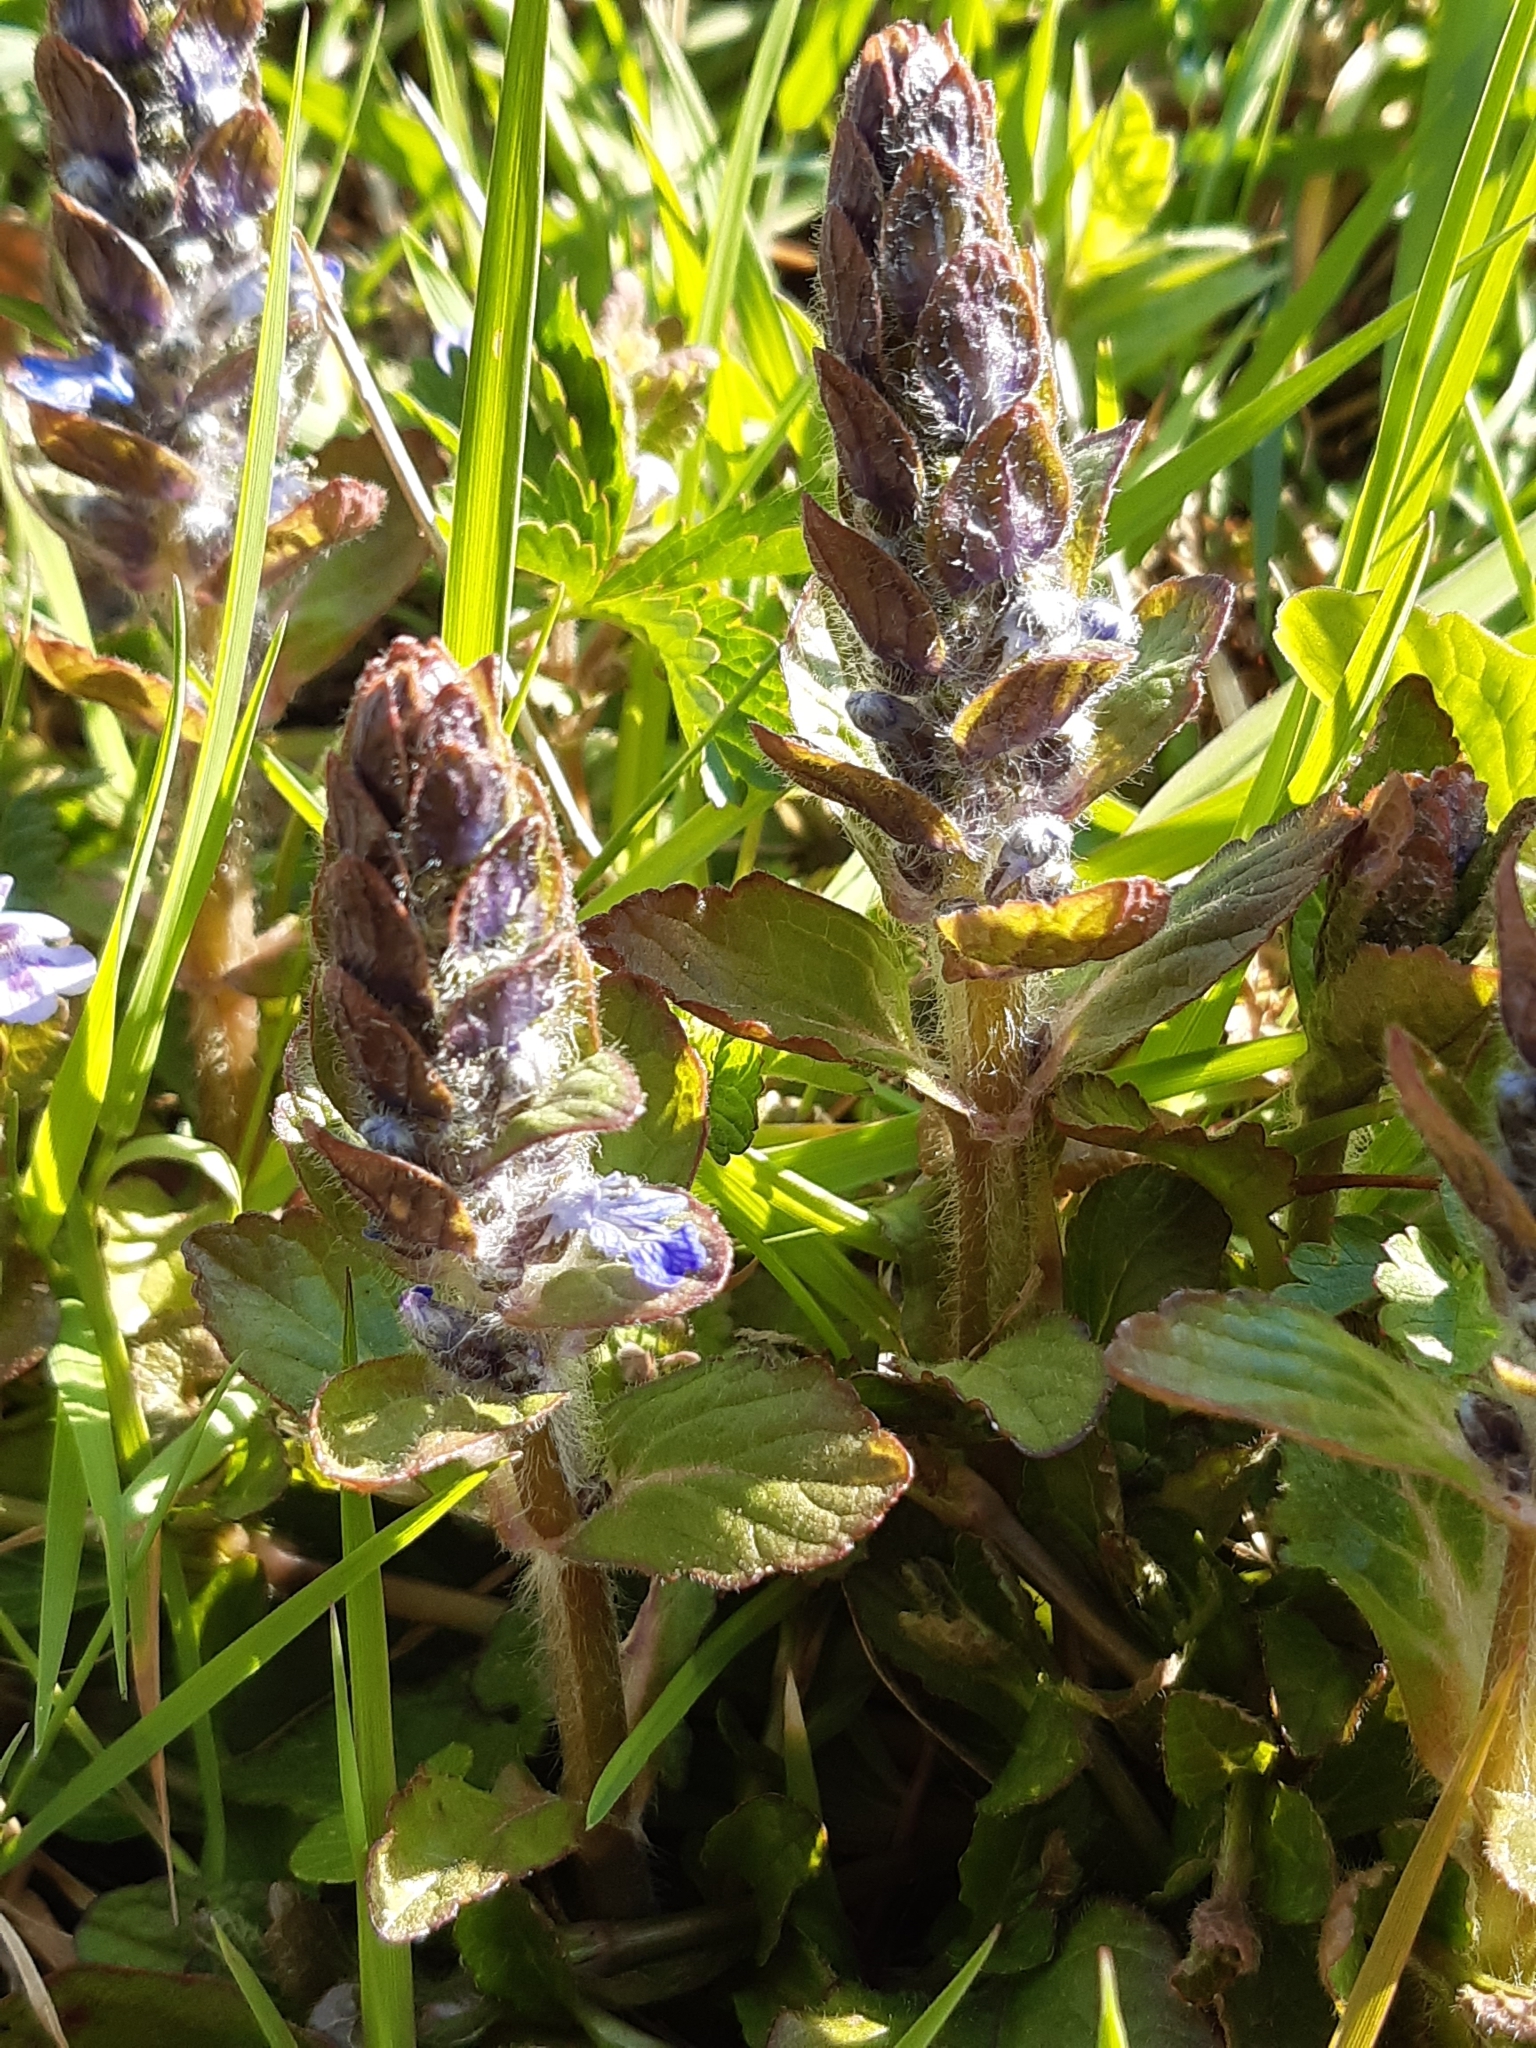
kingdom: Plantae
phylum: Tracheophyta
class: Magnoliopsida
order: Lamiales
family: Lamiaceae
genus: Ajuga
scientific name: Ajuga reptans
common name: Bugle
